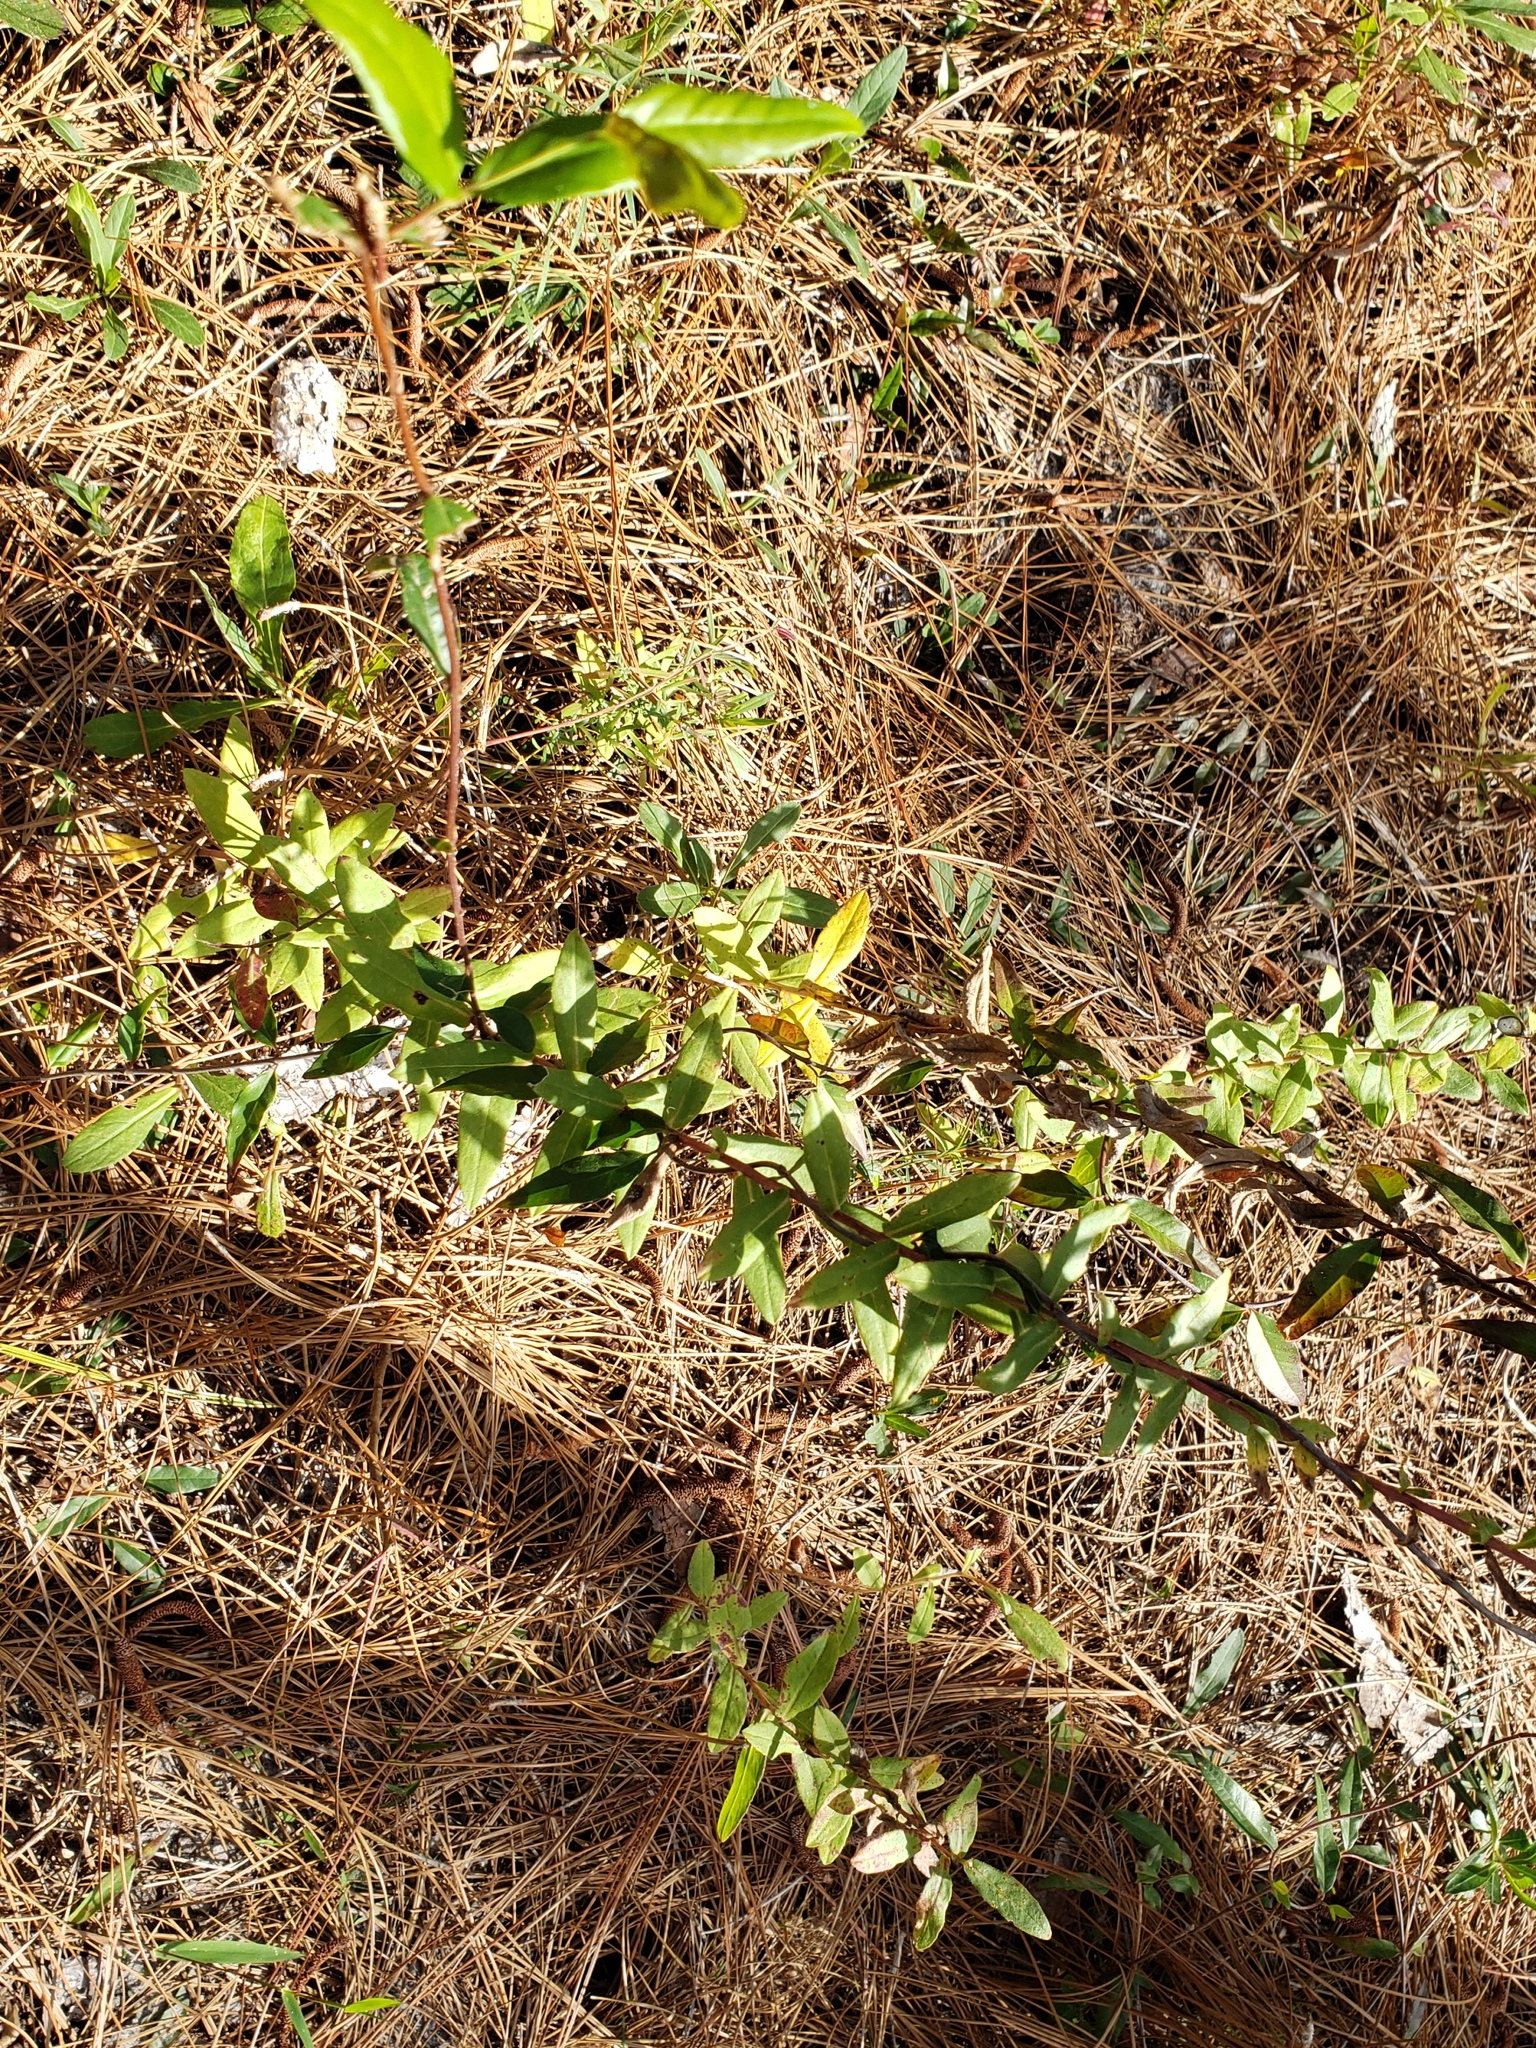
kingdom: Plantae
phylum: Tracheophyta
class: Magnoliopsida
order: Gentianales
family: Gelsemiaceae
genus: Gelsemium
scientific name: Gelsemium sempervirens
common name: Carolina-jasmine
